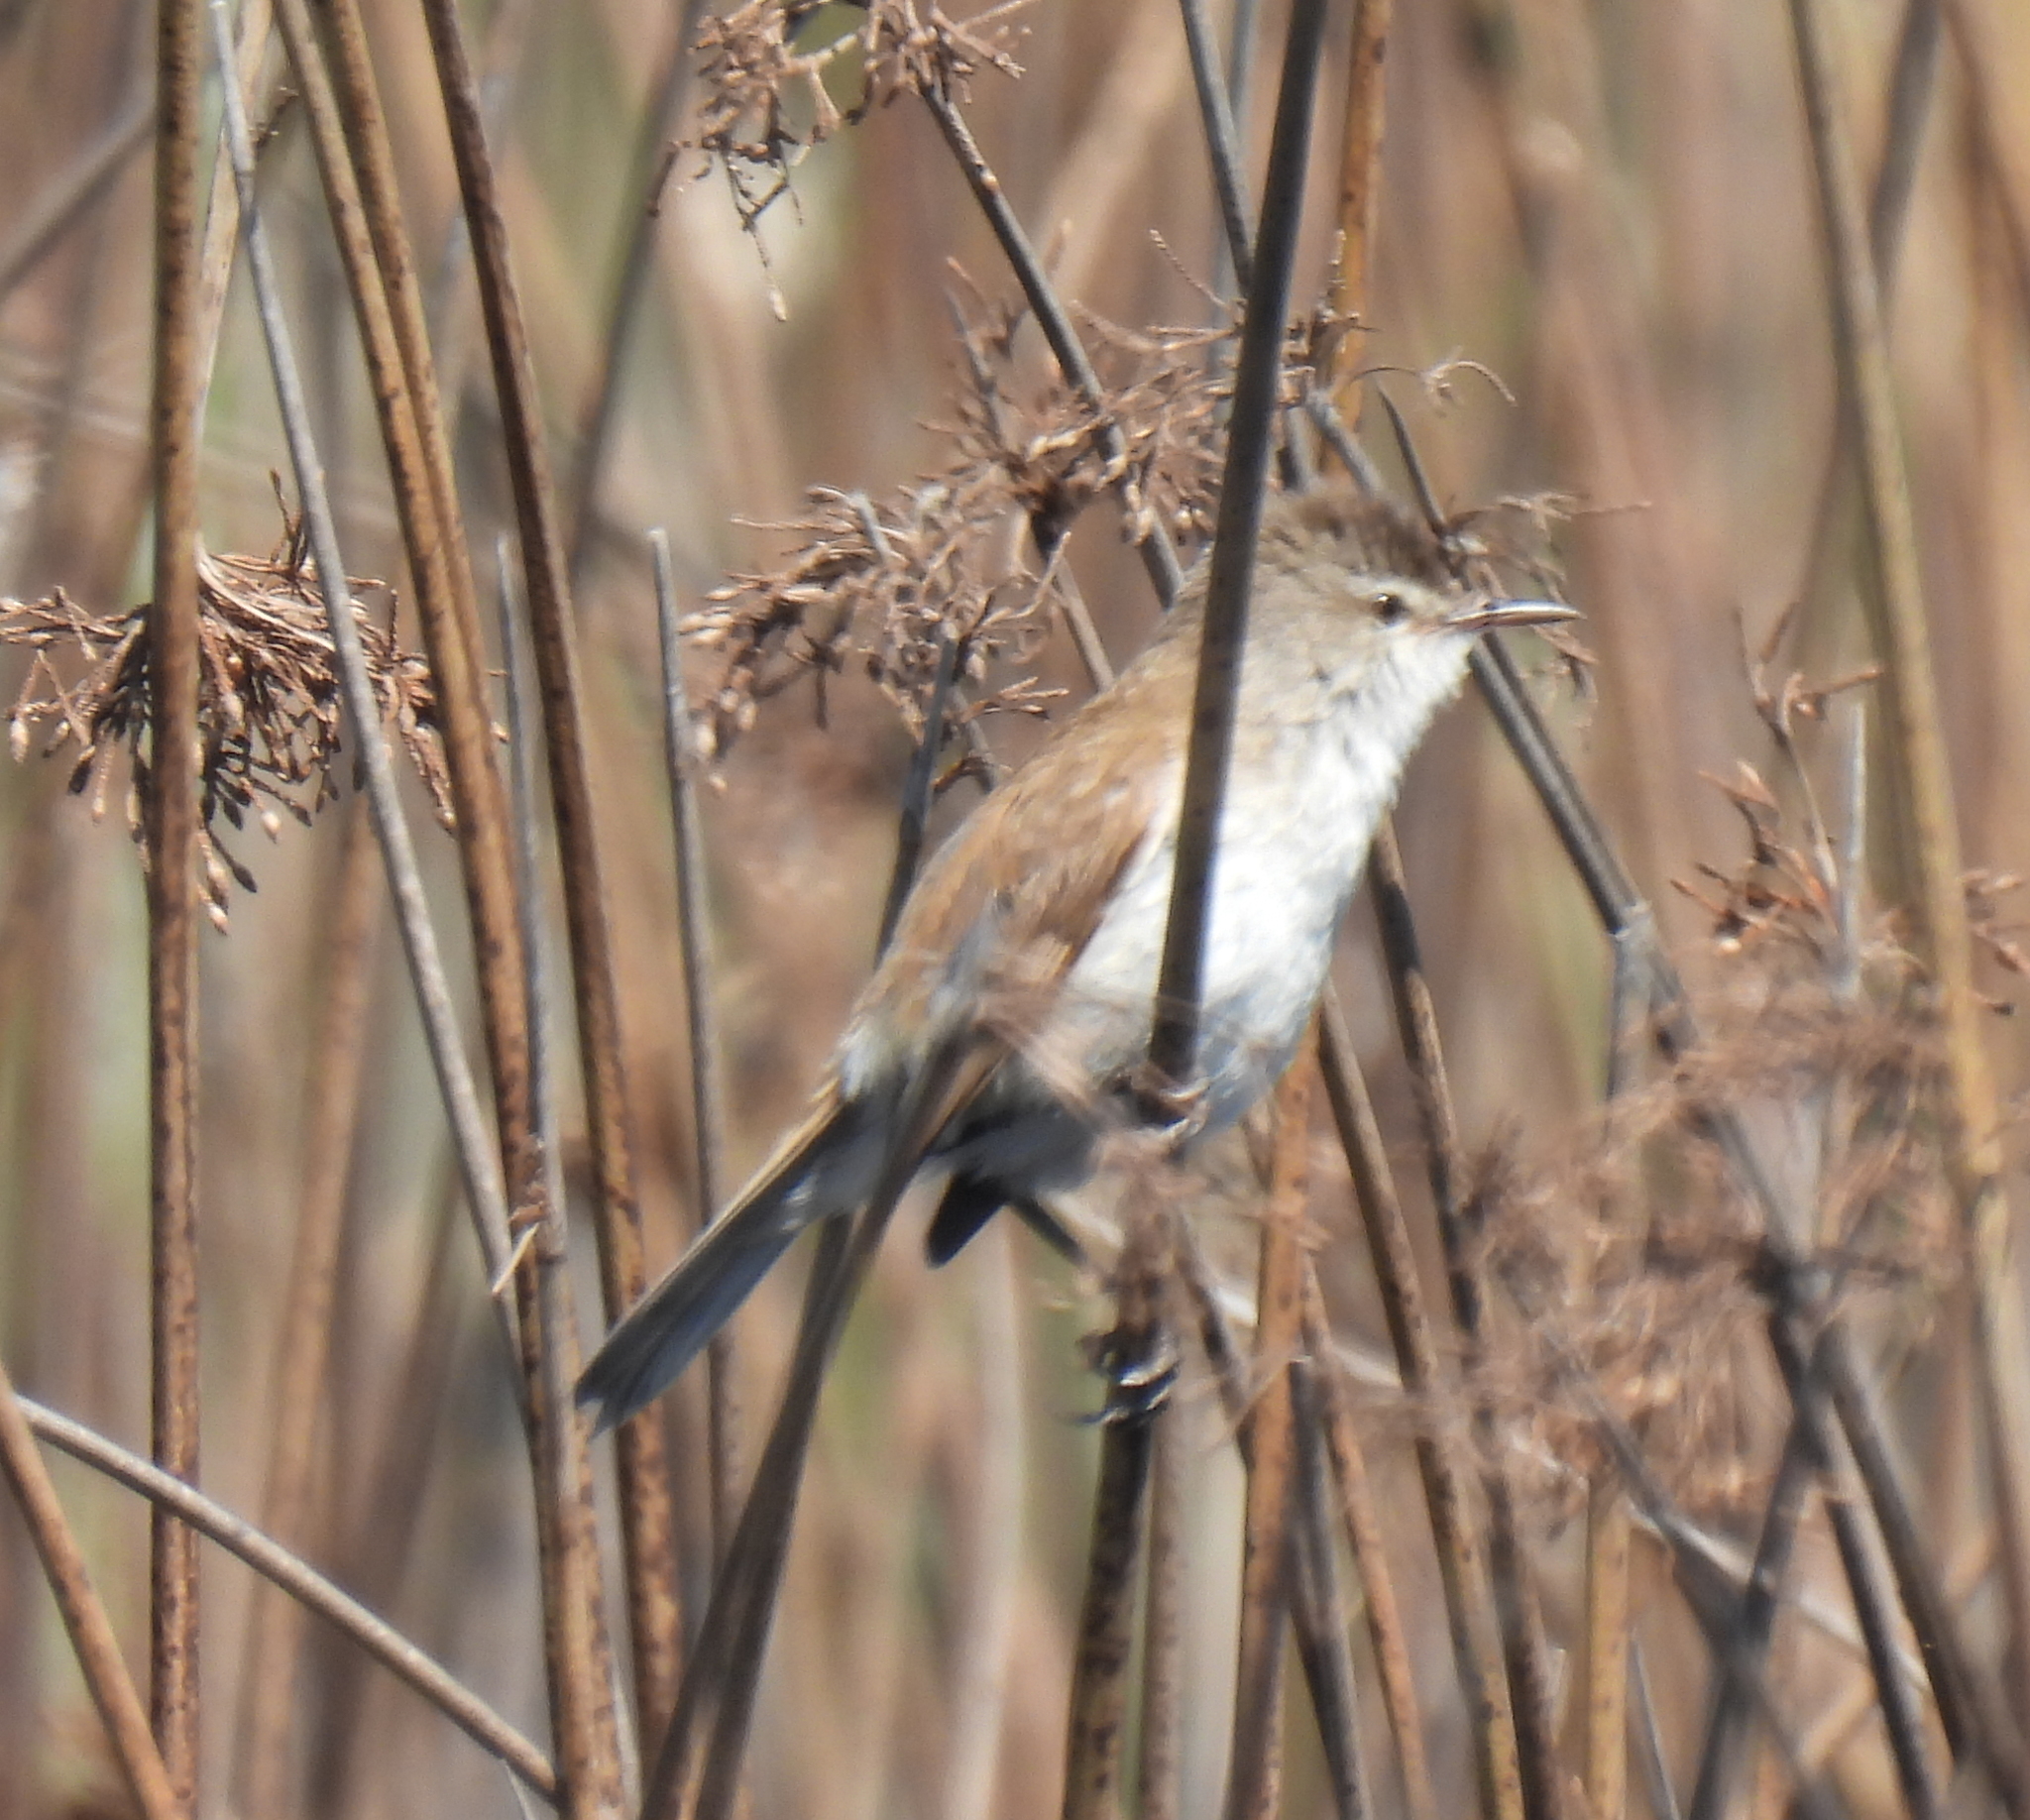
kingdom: Animalia
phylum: Chordata
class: Aves
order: Passeriformes
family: Acrocephalidae
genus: Acrocephalus
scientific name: Acrocephalus gracilirostris
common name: Lesser swamp warbler
